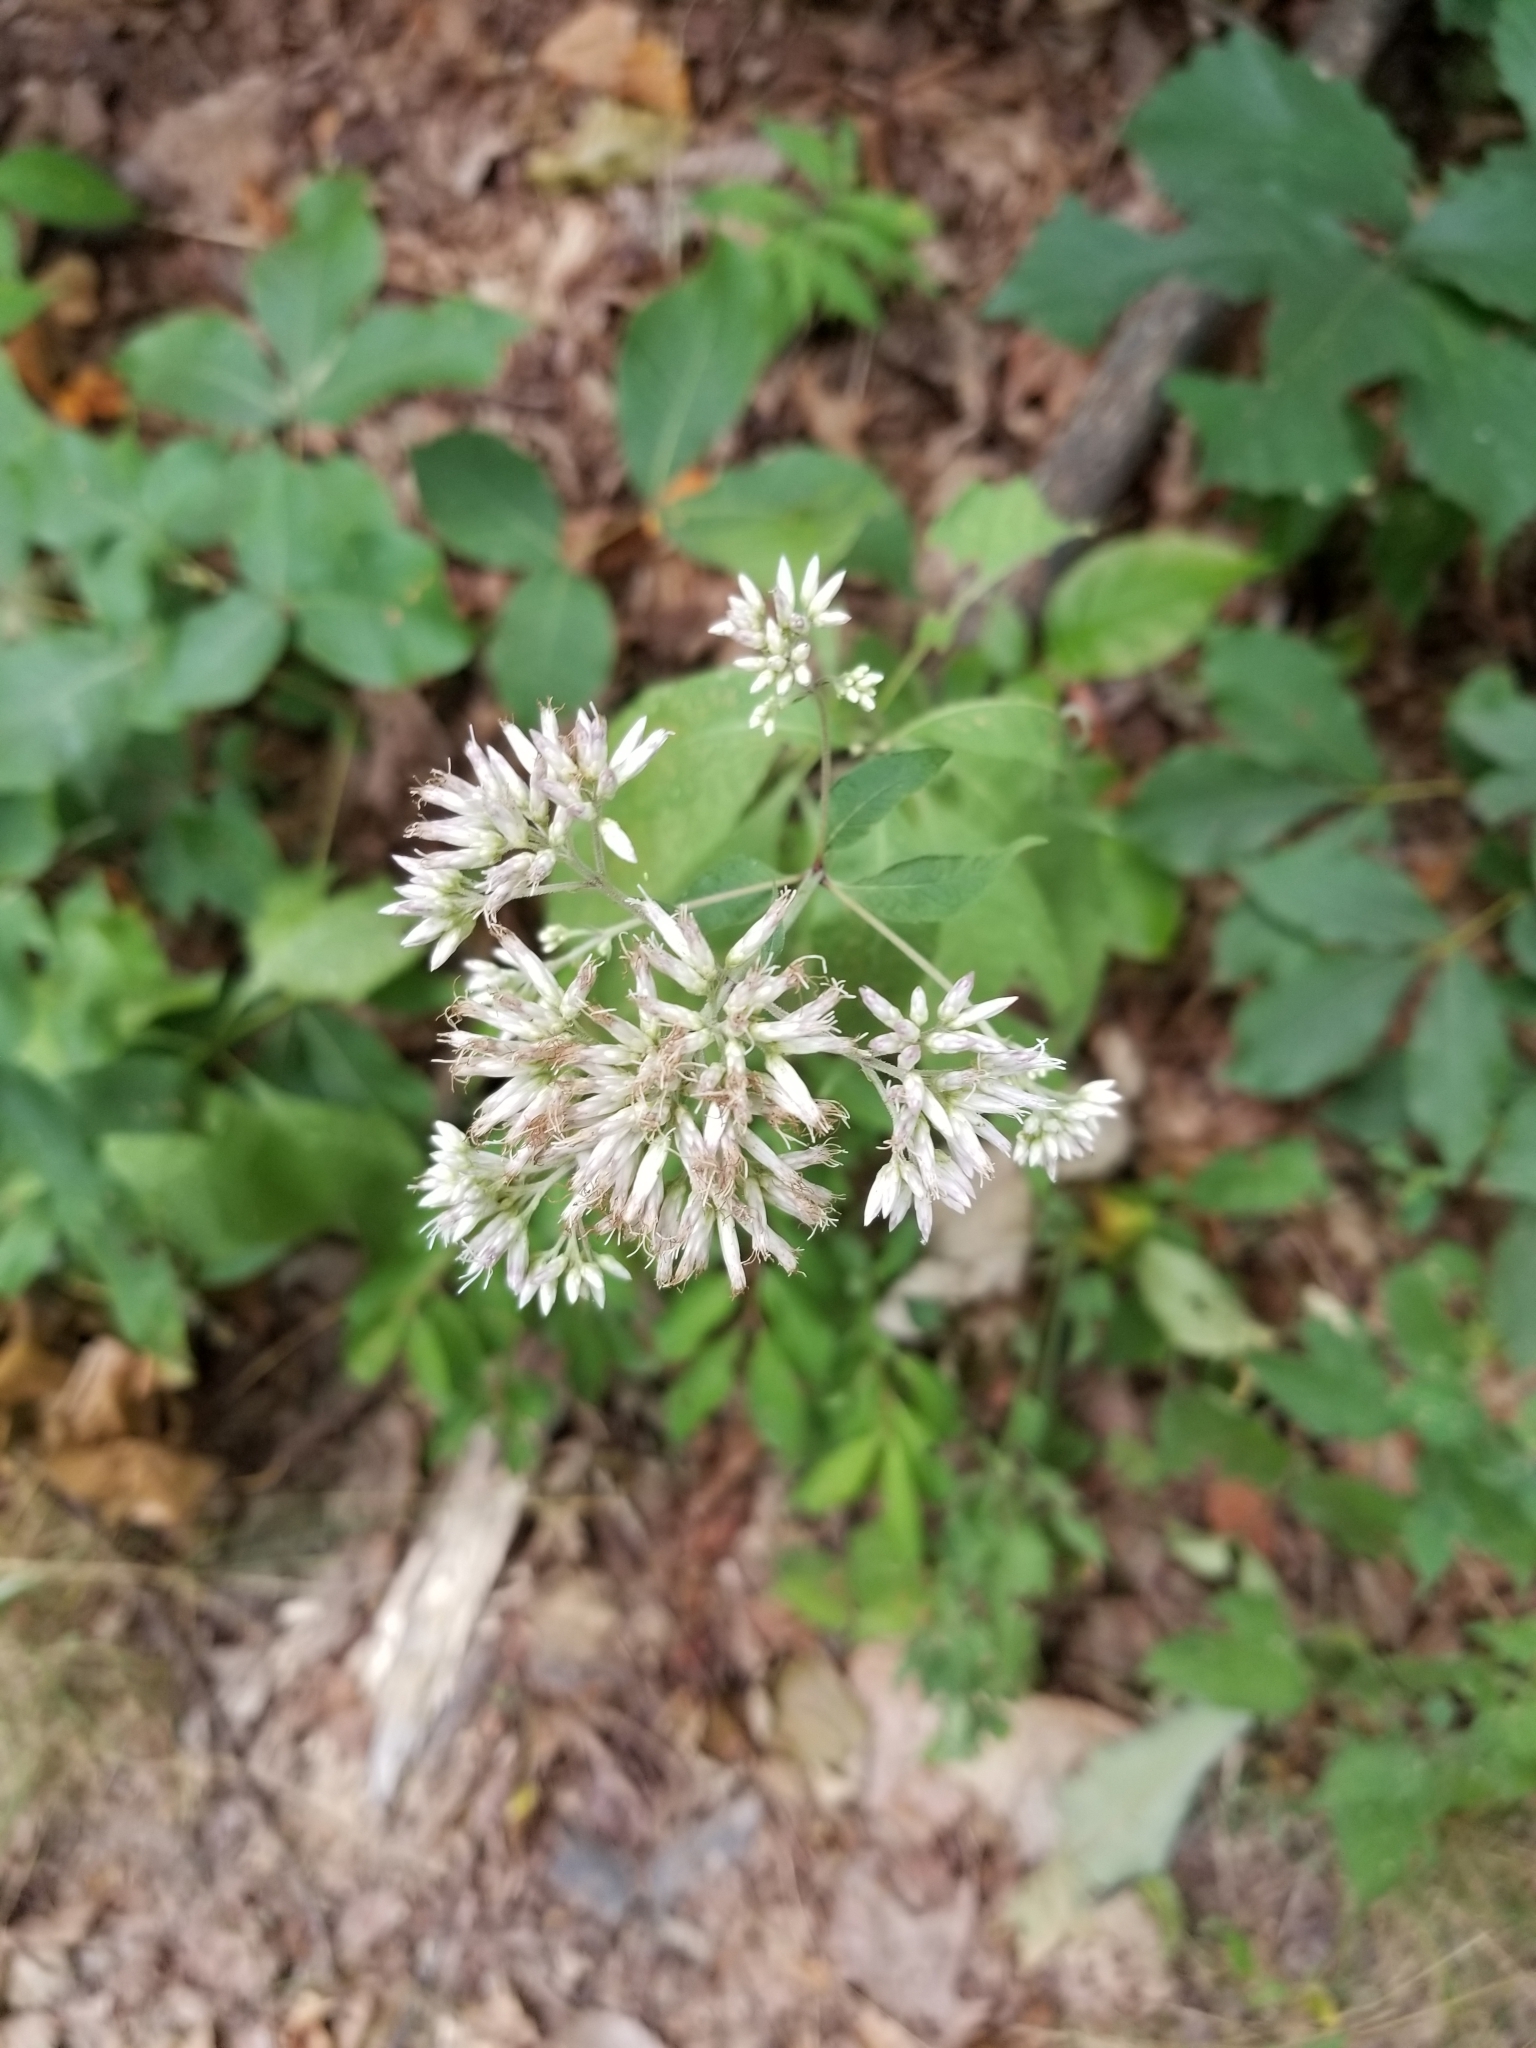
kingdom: Plantae
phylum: Tracheophyta
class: Magnoliopsida
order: Asterales
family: Asteraceae
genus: Eutrochium
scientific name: Eutrochium purpureum
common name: Gravelroot
